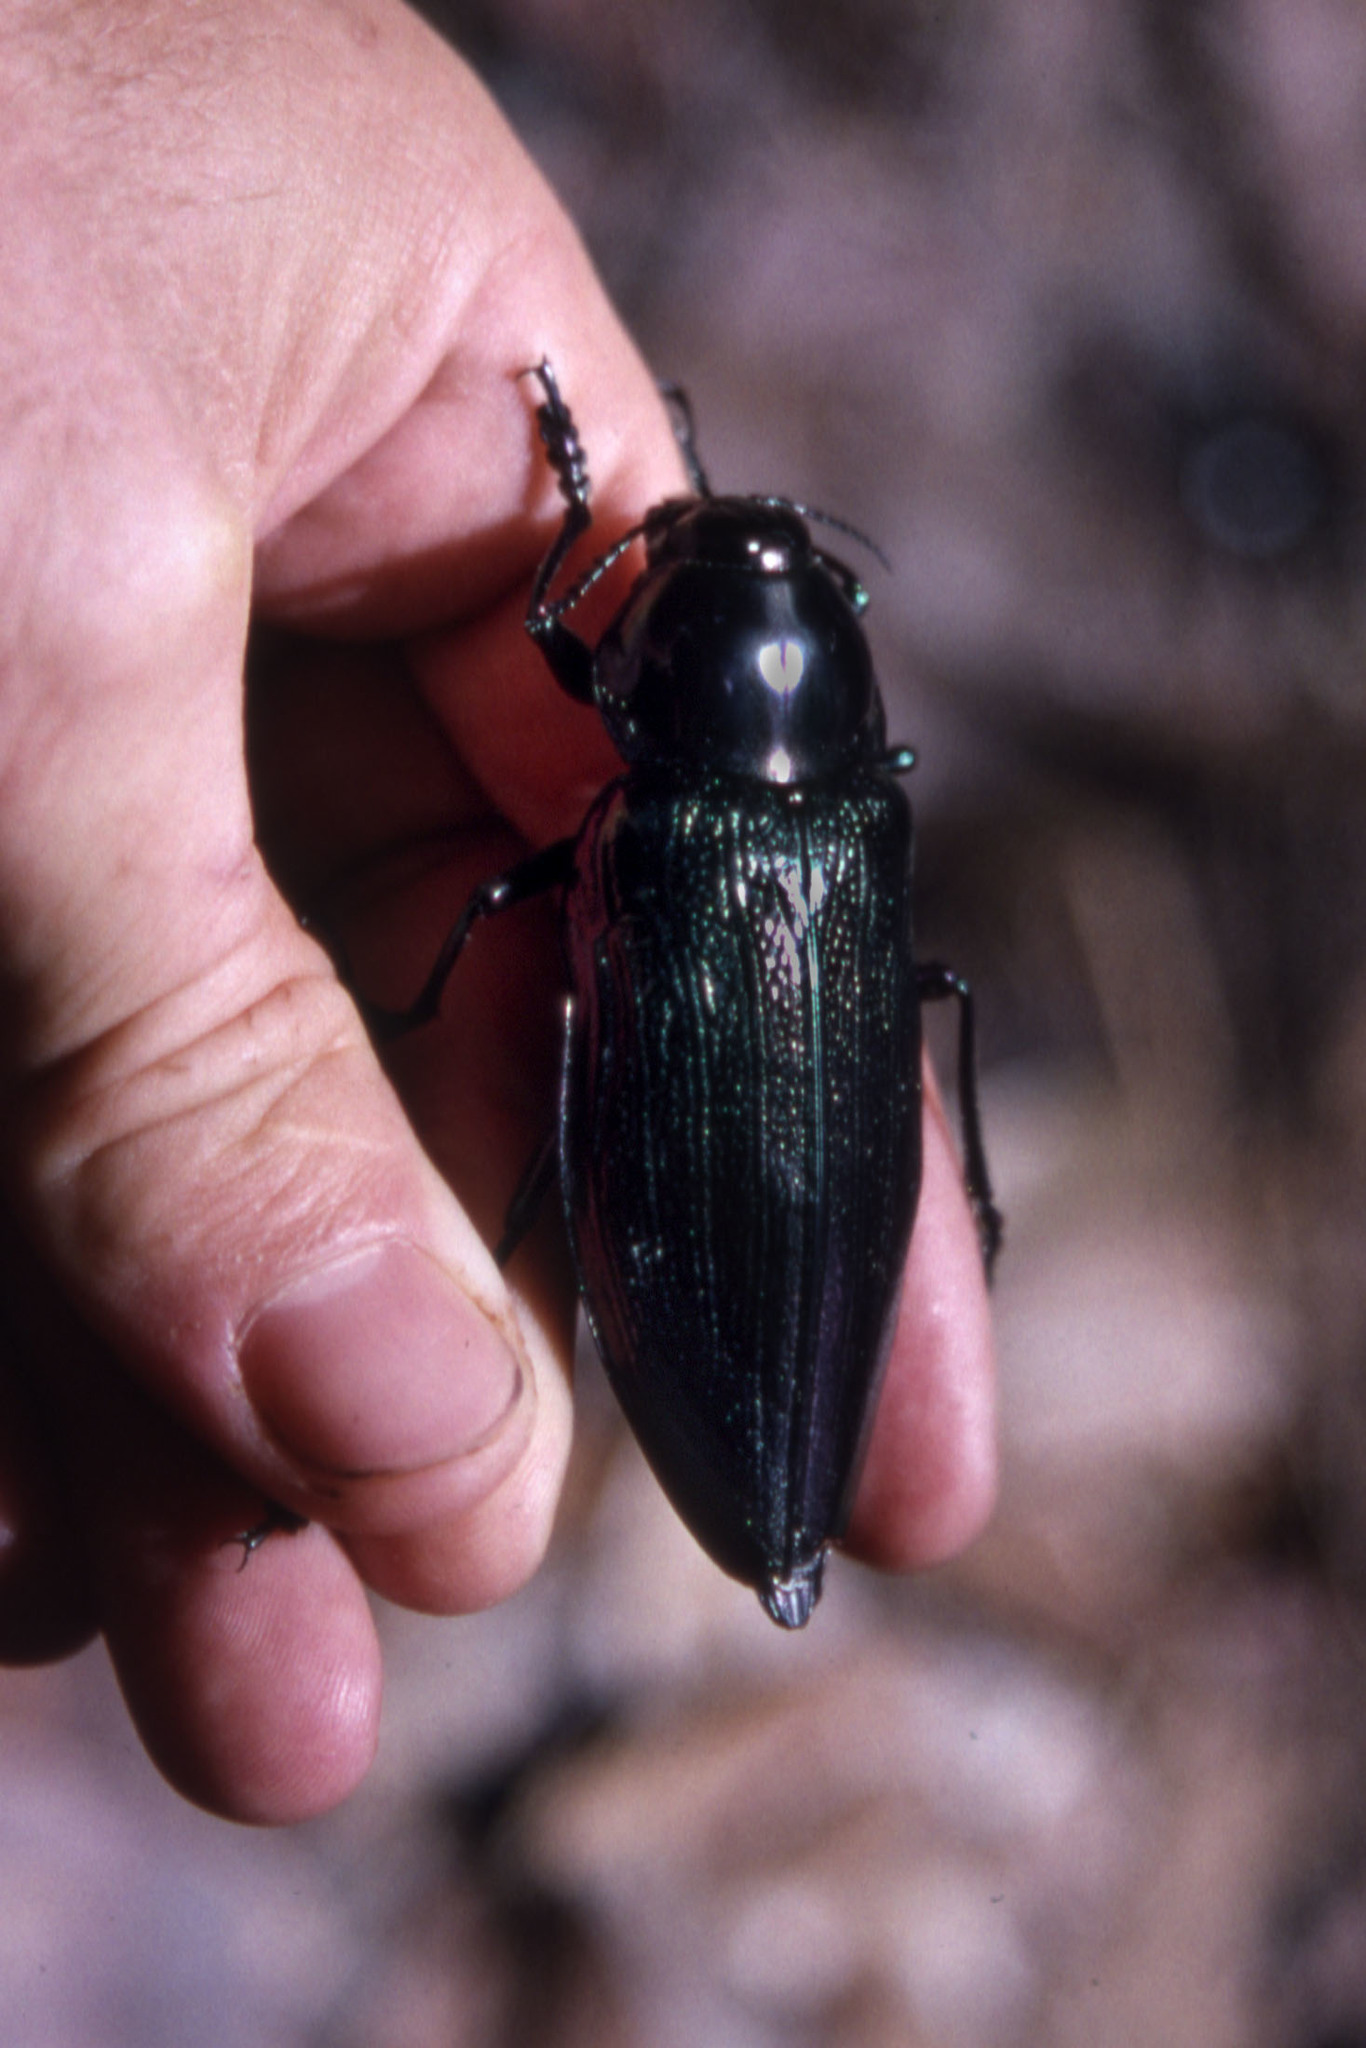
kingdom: Animalia
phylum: Arthropoda
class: Insecta
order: Coleoptera
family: Buprestidae
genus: Euchroma
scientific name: Euchroma giganteum
